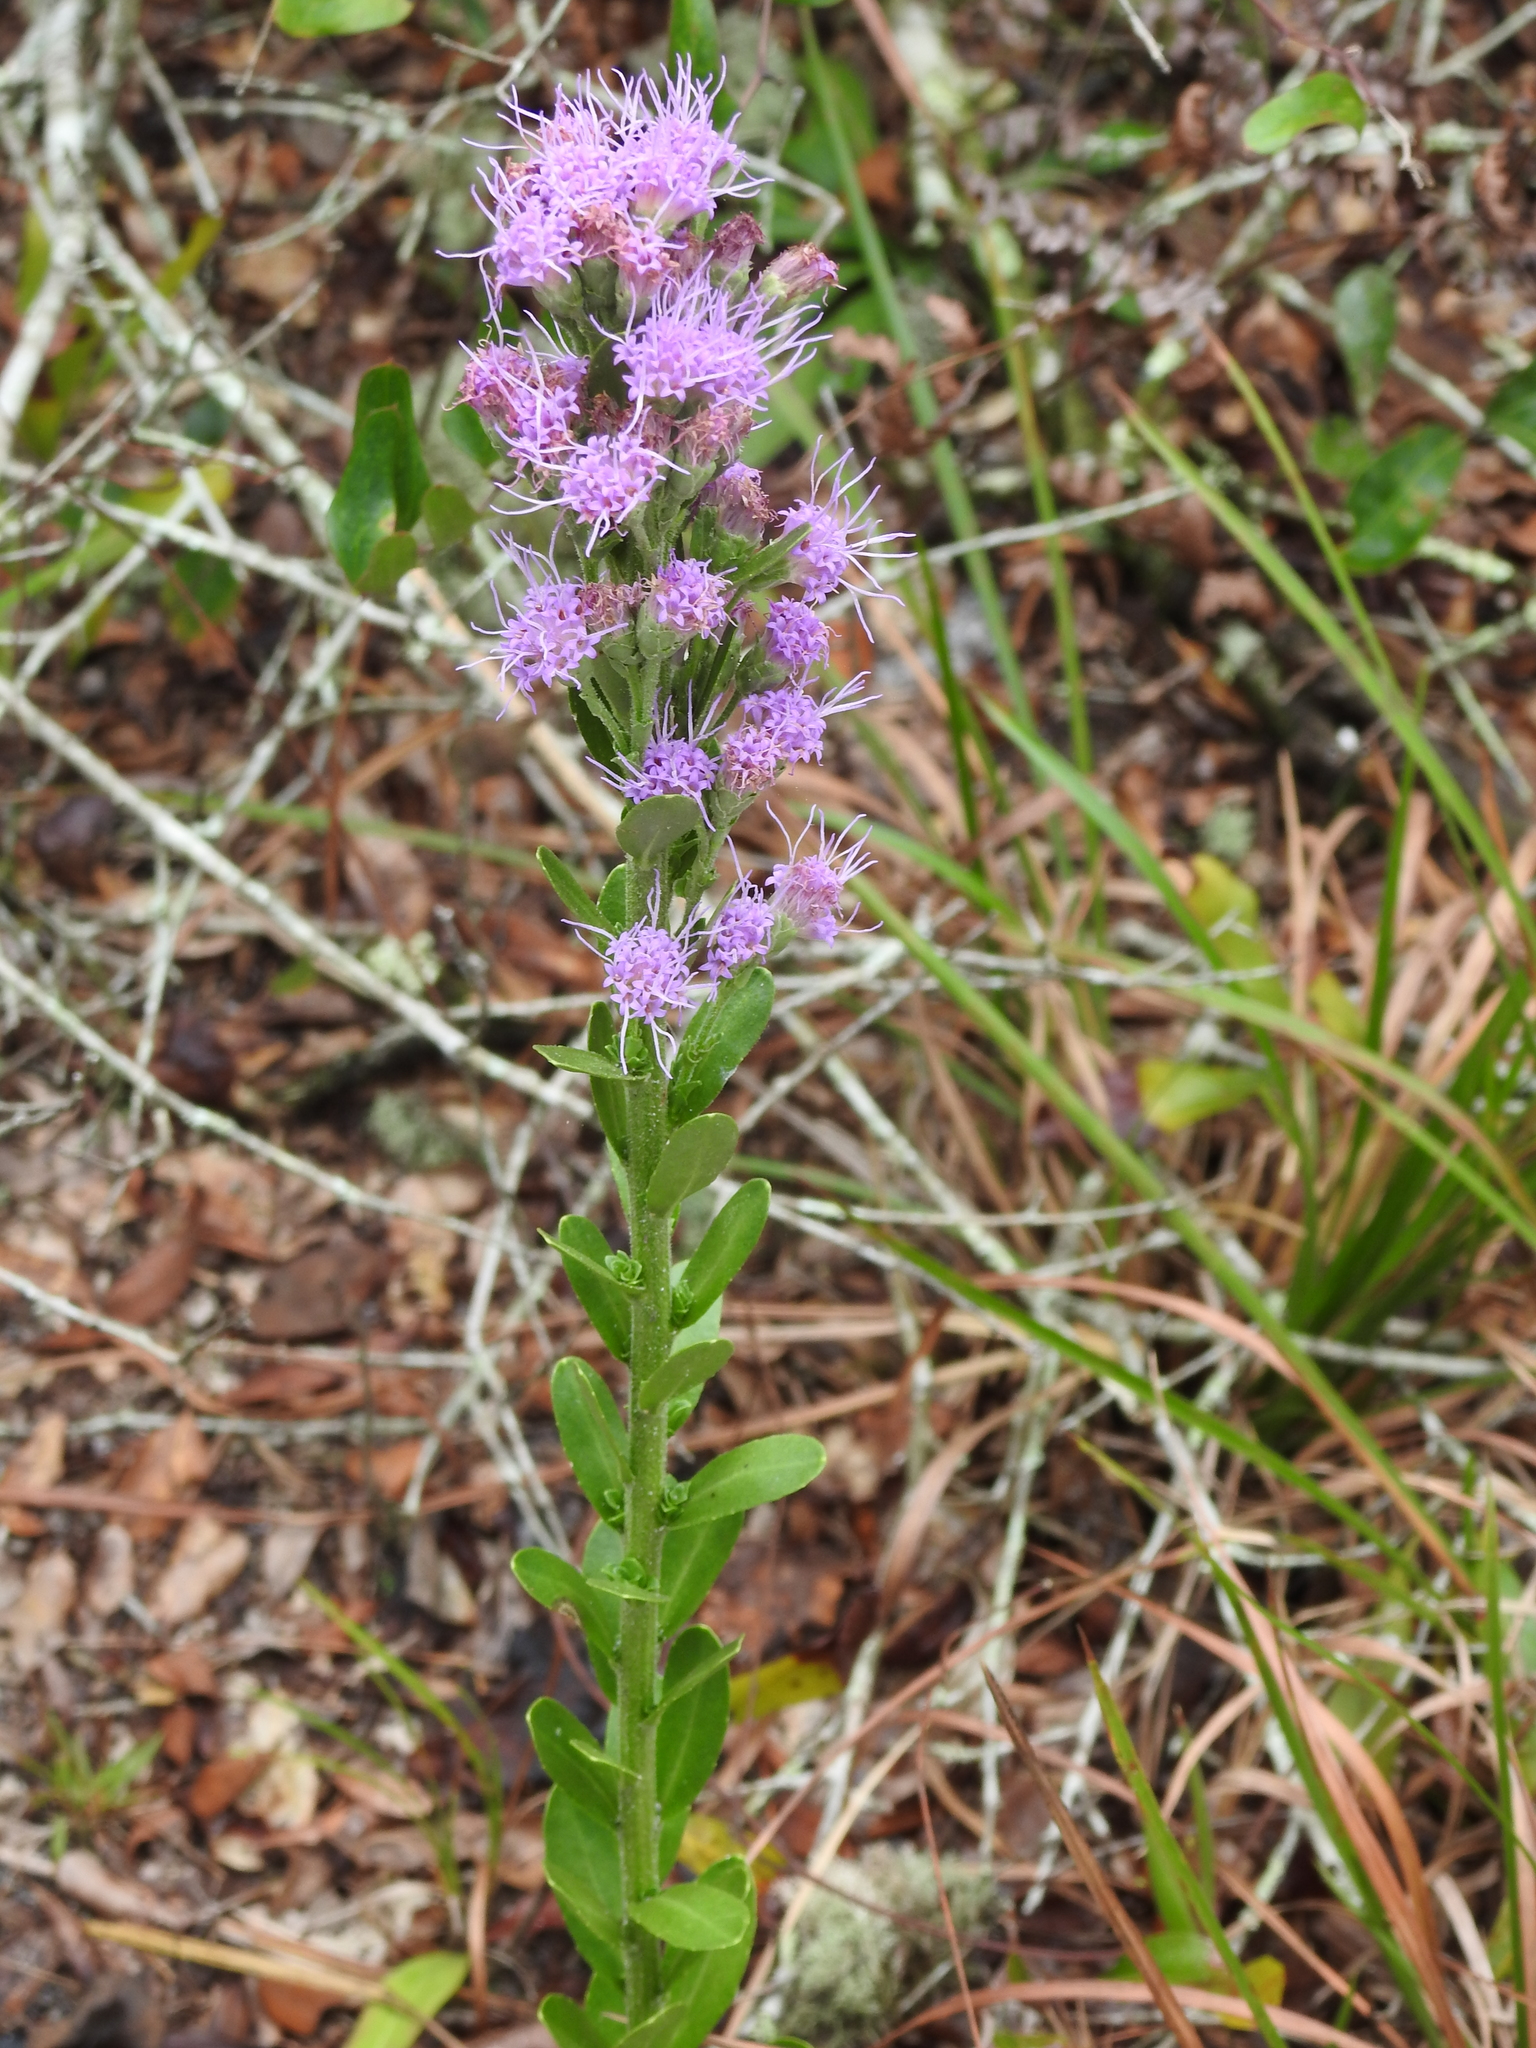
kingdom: Plantae
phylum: Tracheophyta
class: Magnoliopsida
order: Asterales
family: Asteraceae
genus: Carphephorus
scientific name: Carphephorus corymbosus
